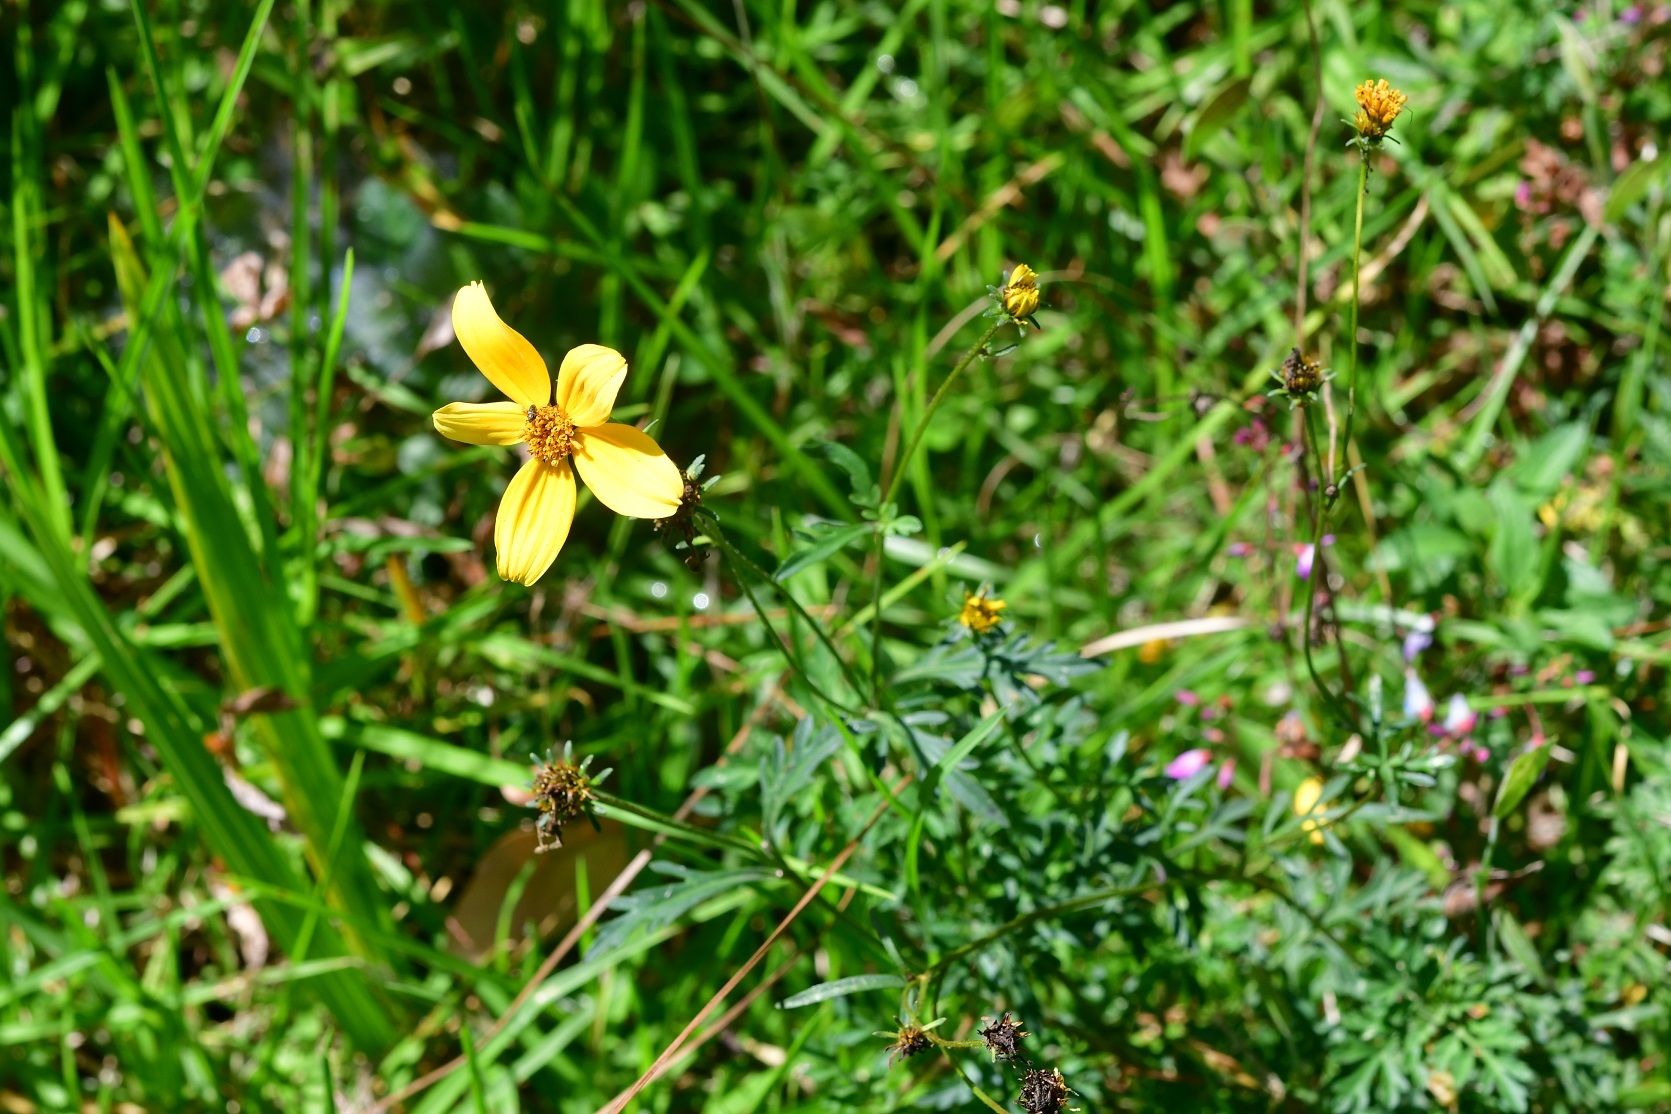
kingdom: Plantae
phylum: Tracheophyta
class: Magnoliopsida
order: Asterales
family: Asteraceae
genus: Bidens
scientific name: Bidens triplinervia
